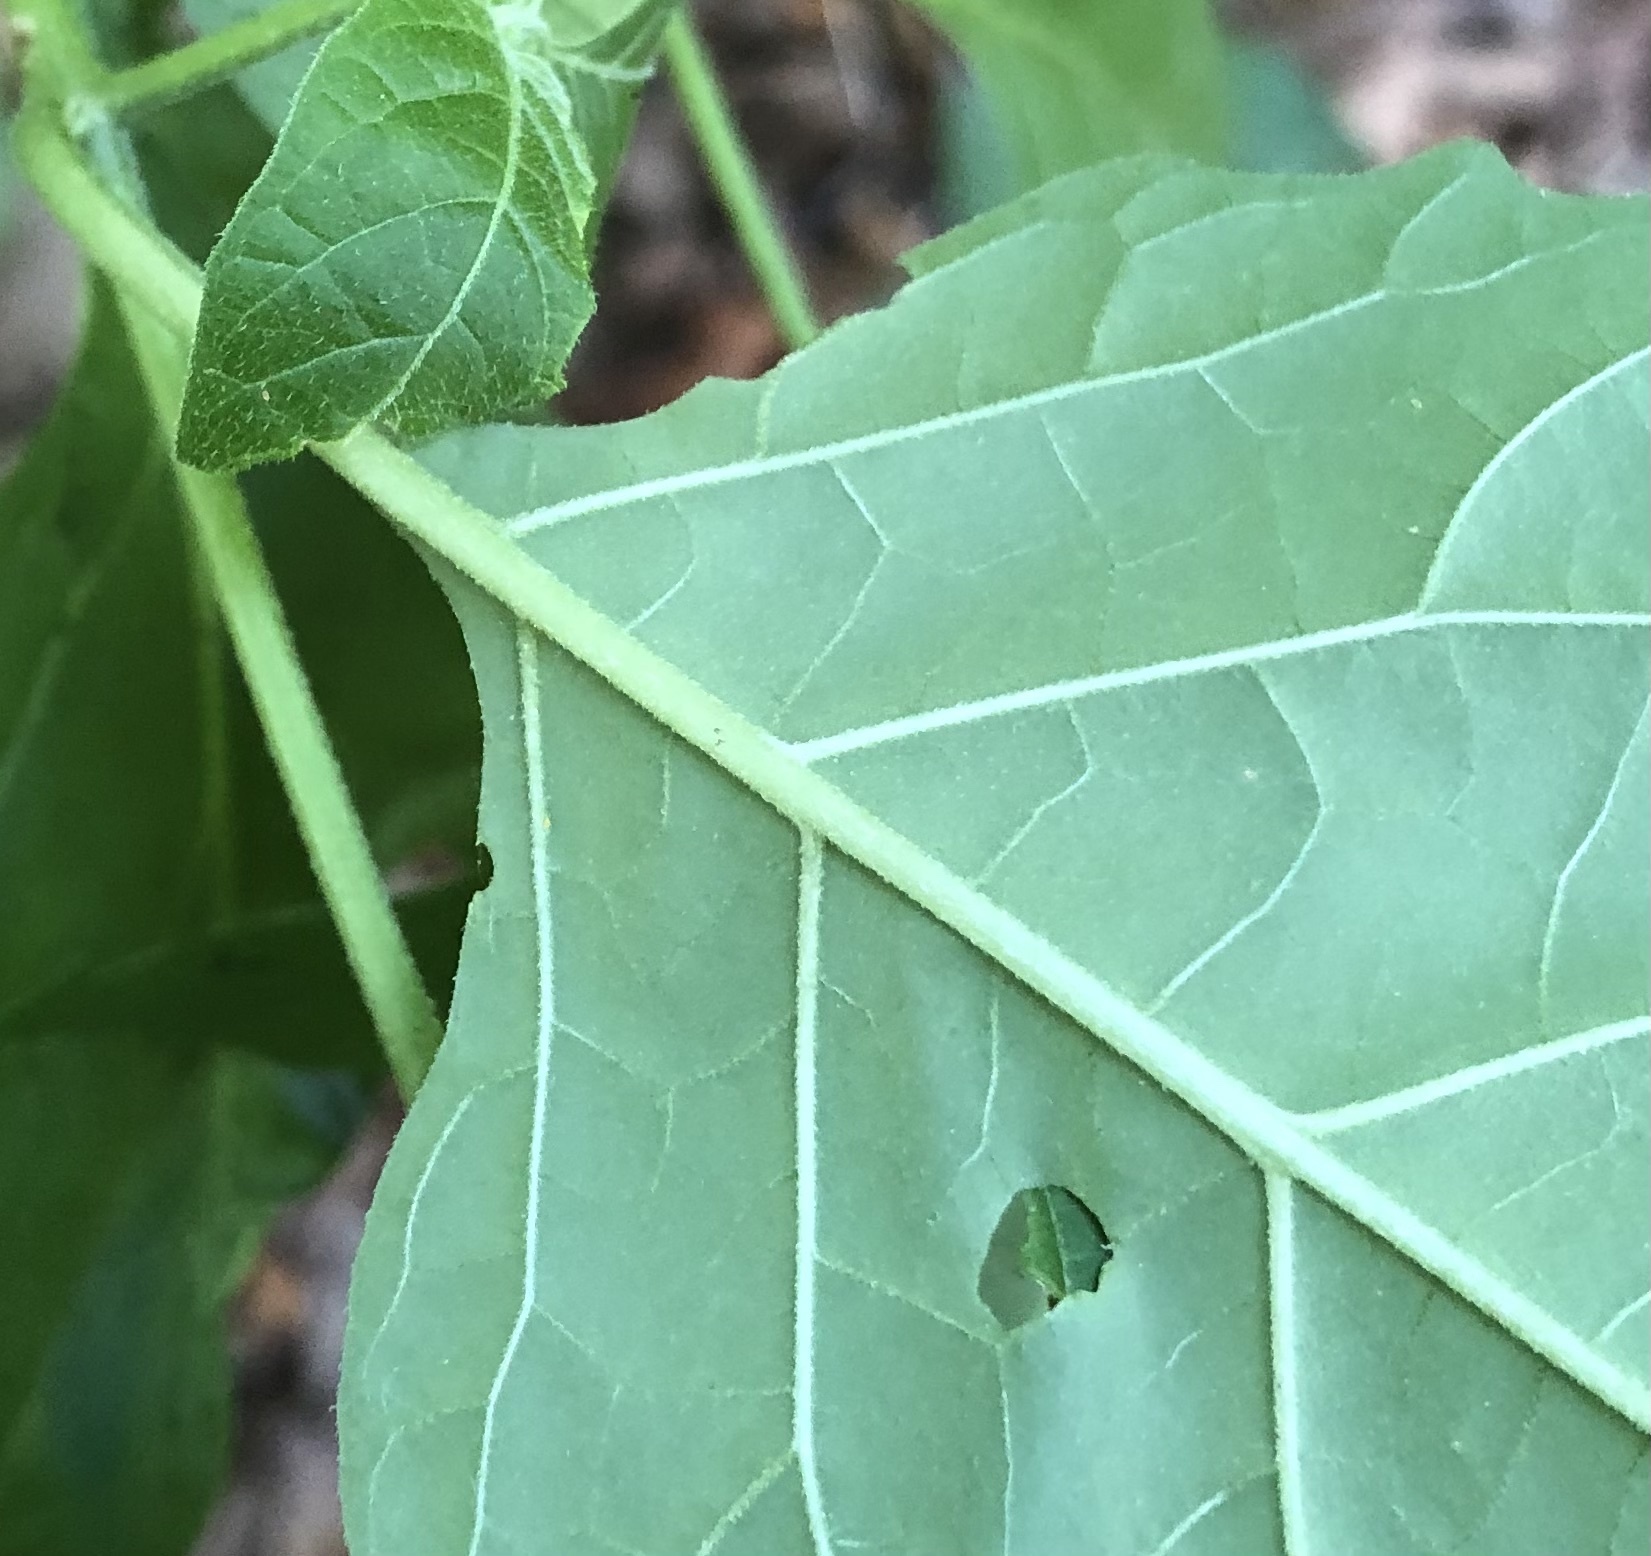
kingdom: Plantae
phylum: Tracheophyta
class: Magnoliopsida
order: Solanales
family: Solanaceae
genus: Solanum
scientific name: Solanum emulans
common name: Eastern black nightshade
